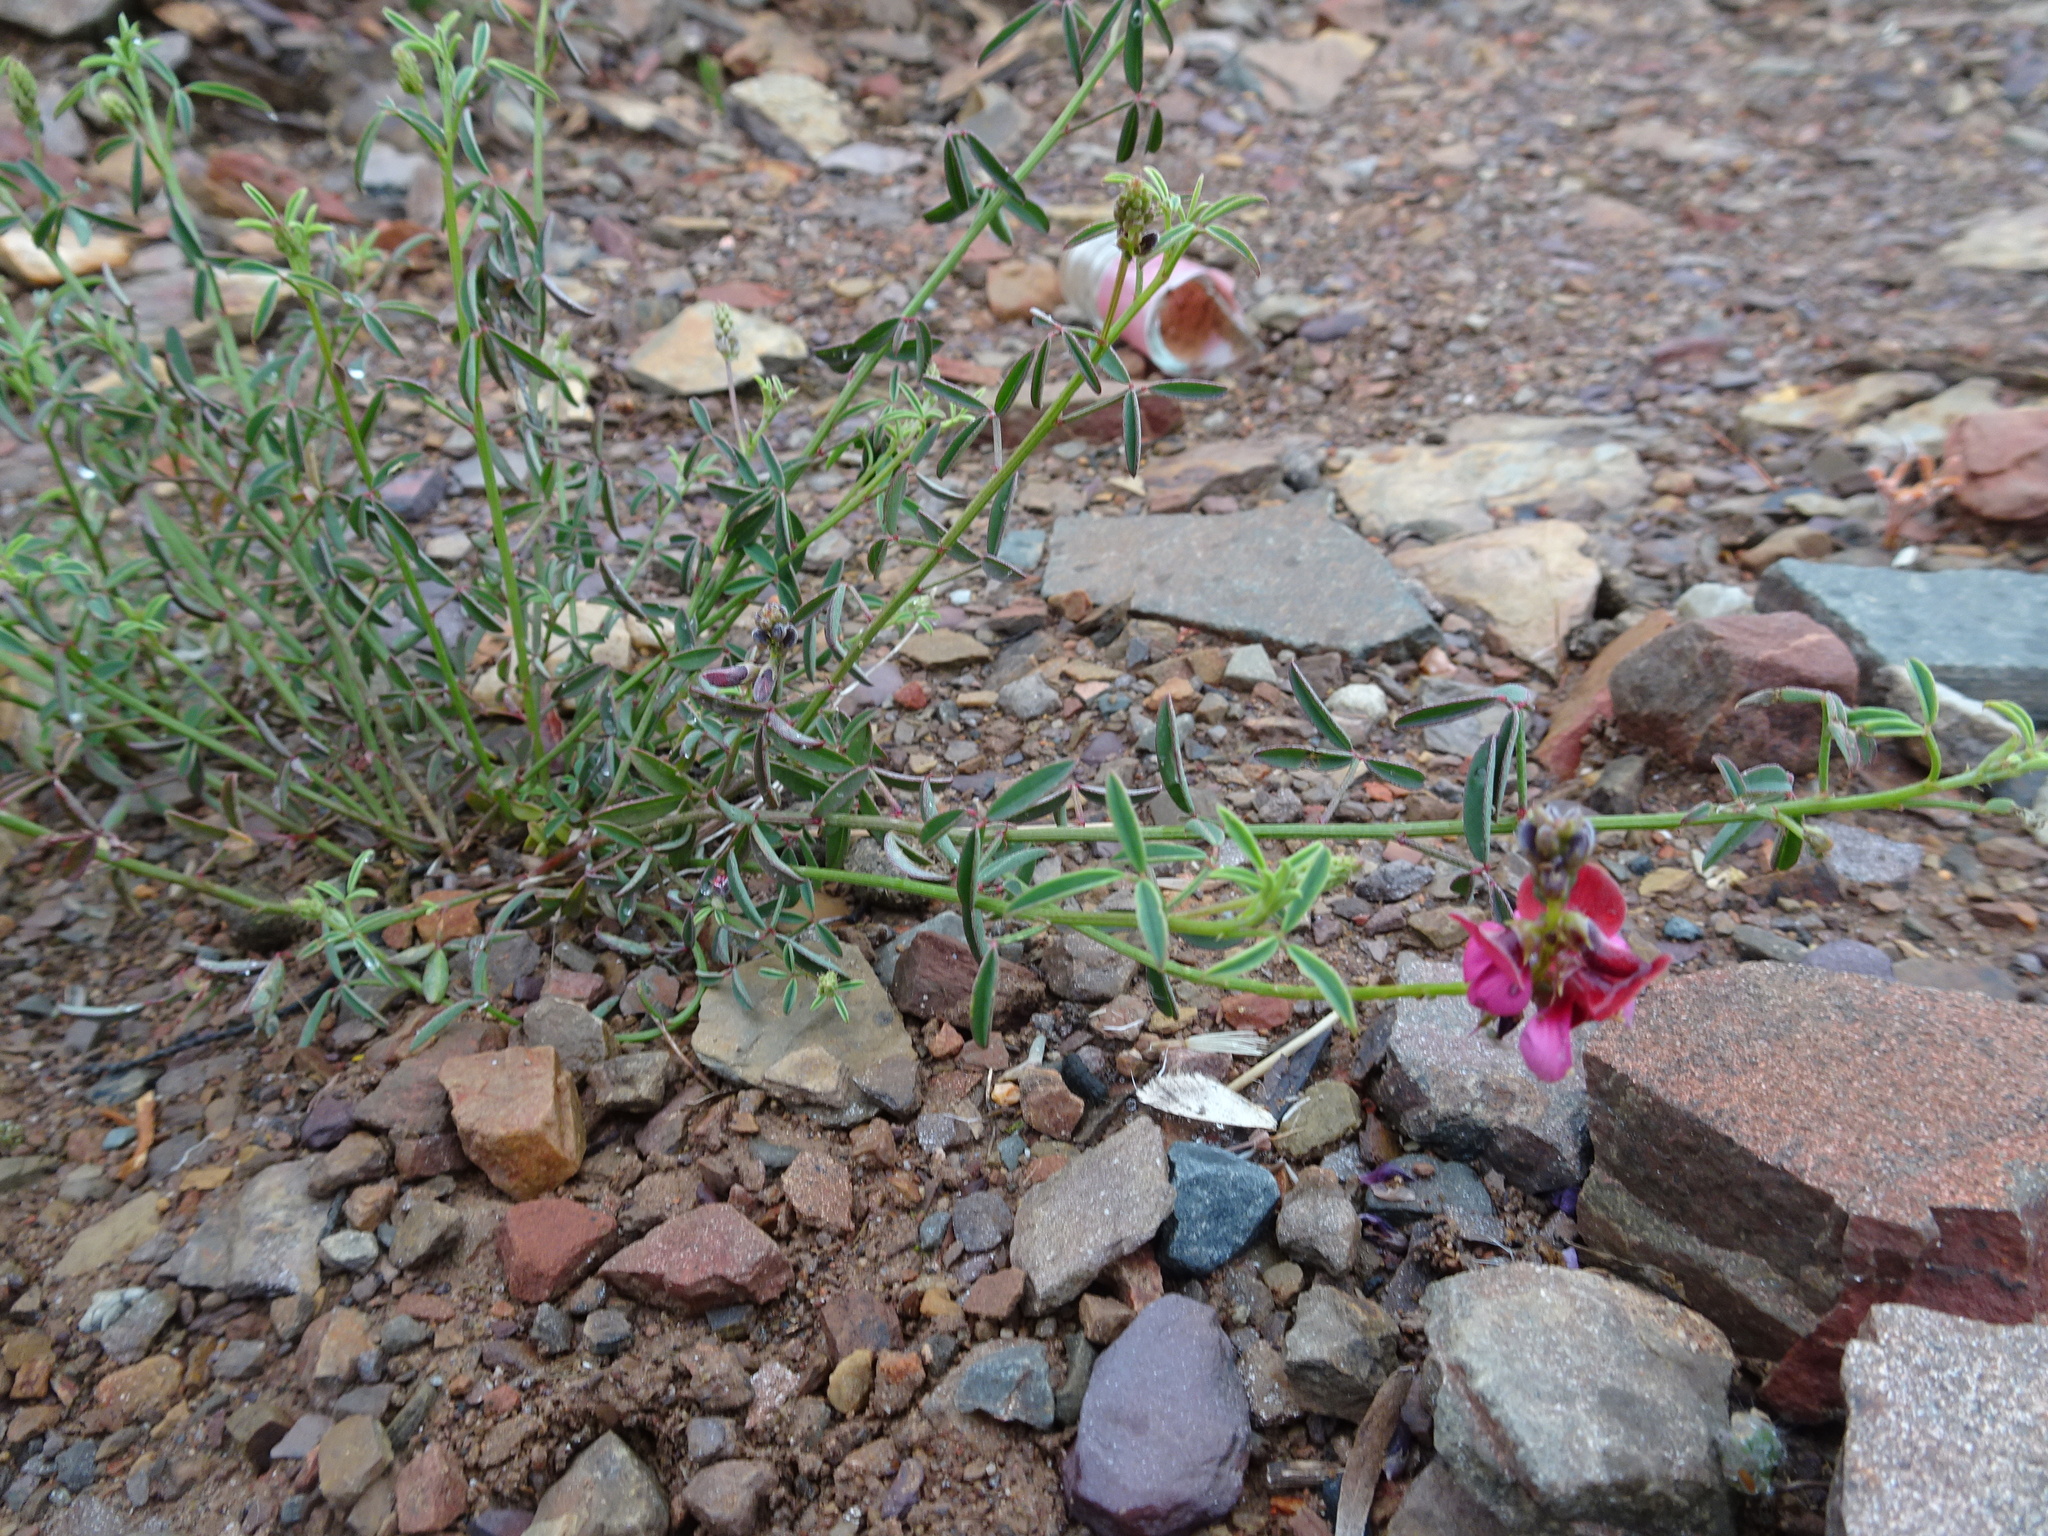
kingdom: Plantae
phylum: Tracheophyta
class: Magnoliopsida
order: Fabales
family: Fabaceae
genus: Indigofera
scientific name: Indigofera heterophylla
